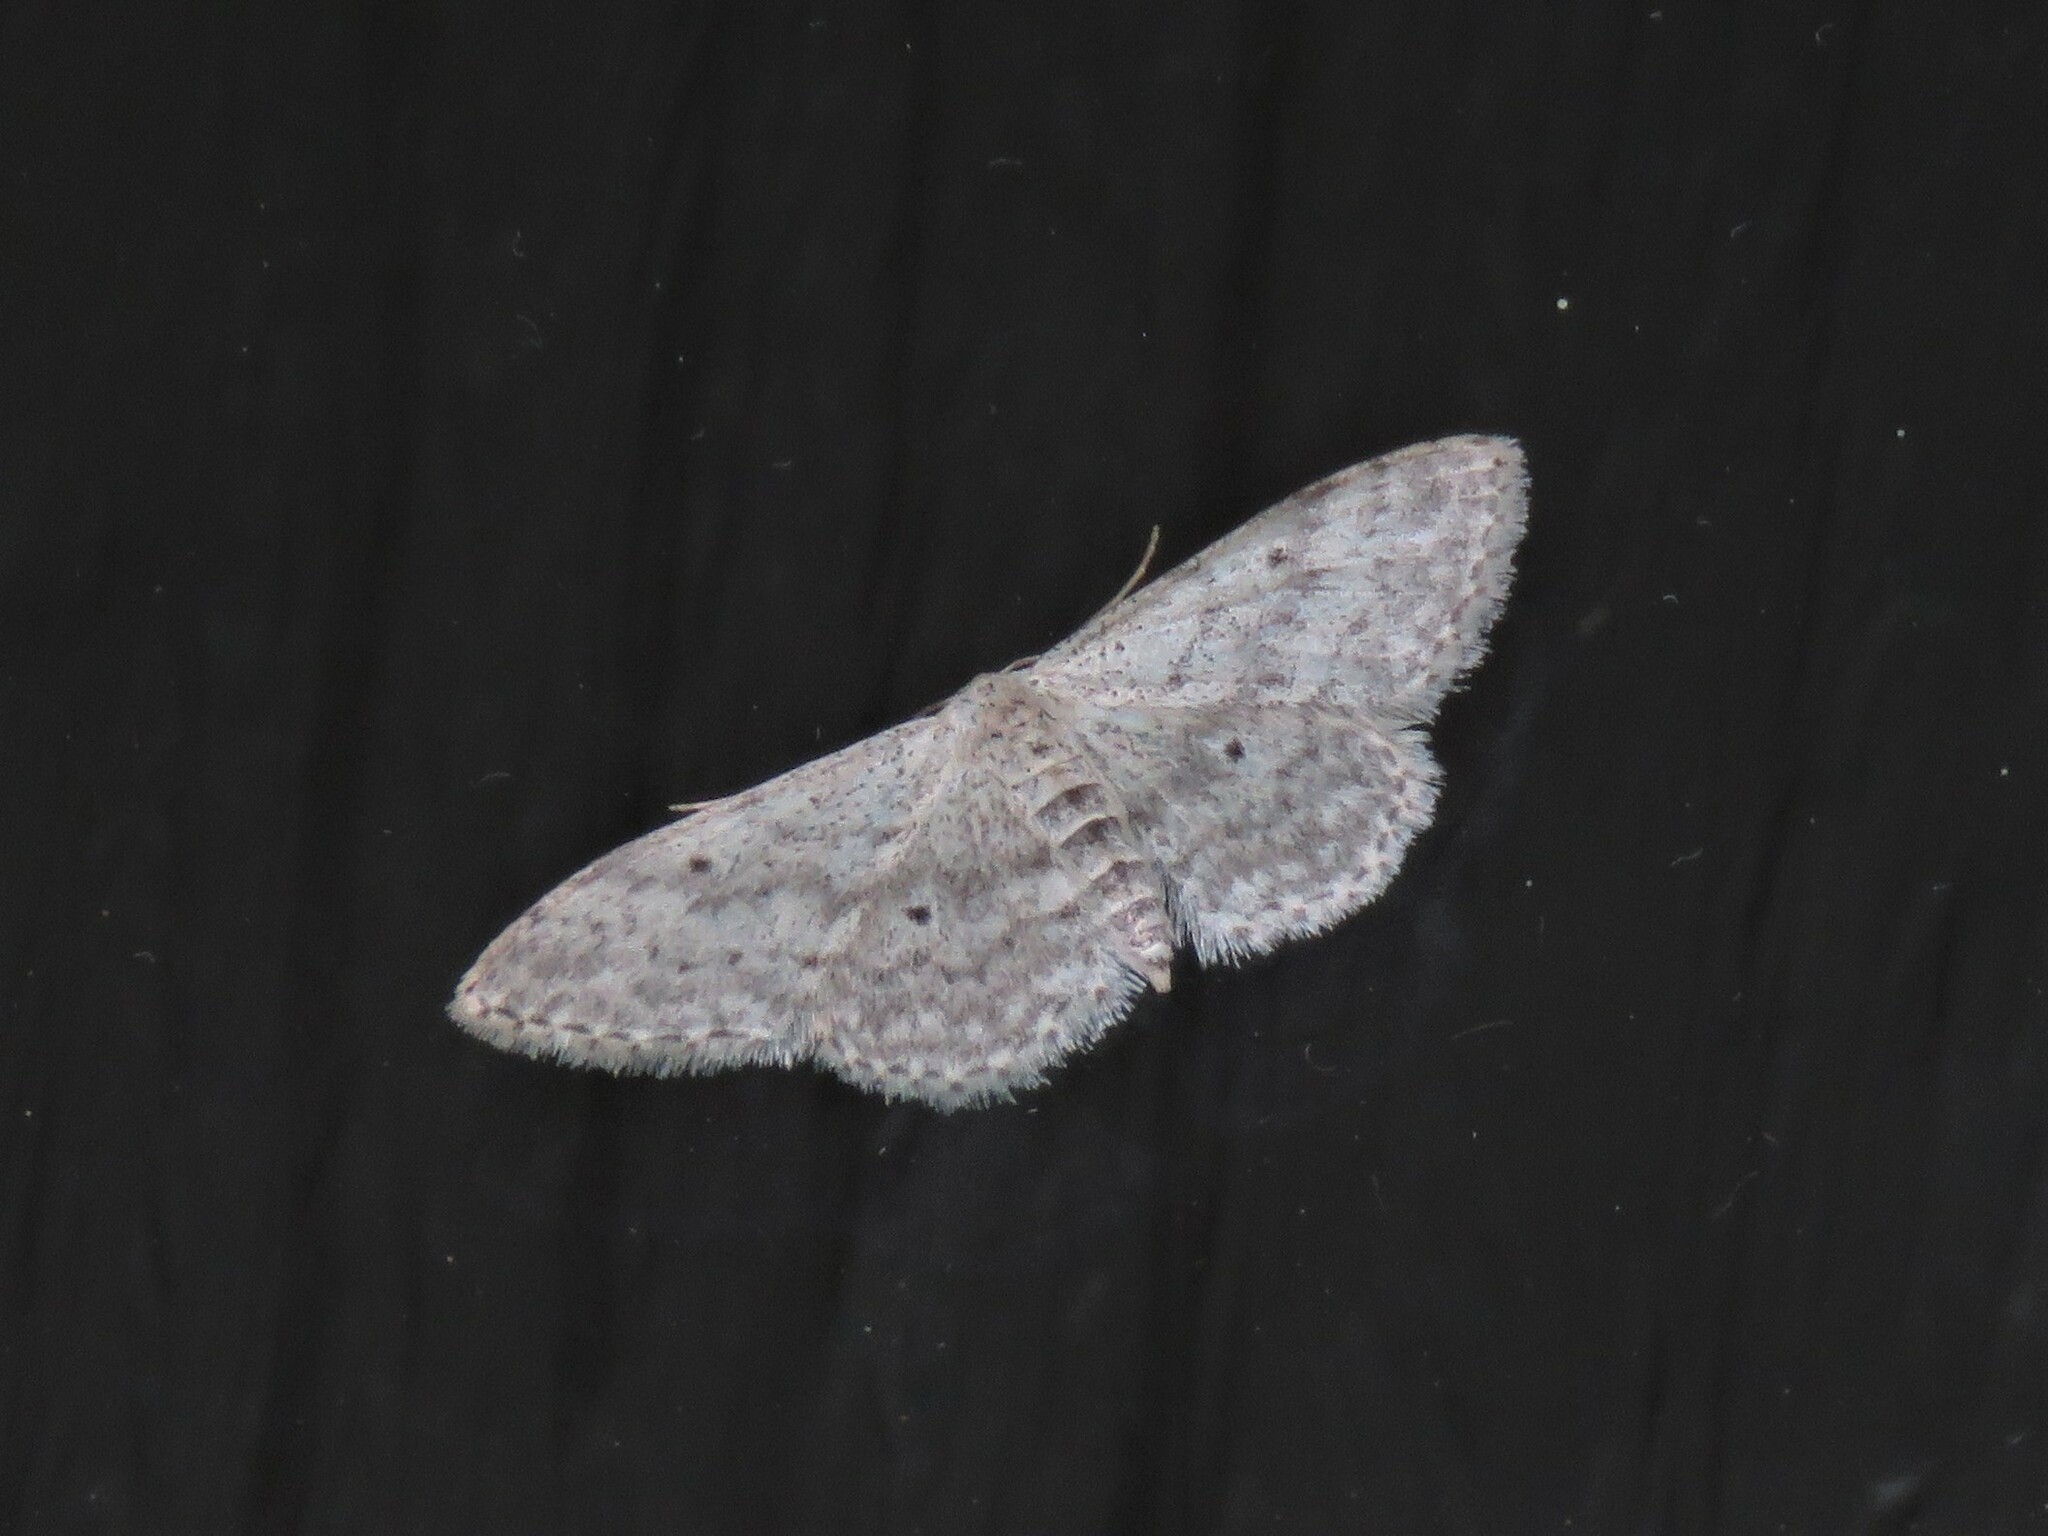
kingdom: Animalia
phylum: Arthropoda
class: Insecta
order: Lepidoptera
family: Geometridae
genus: Idaea
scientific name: Idaea seriata
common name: Small dusty wave
